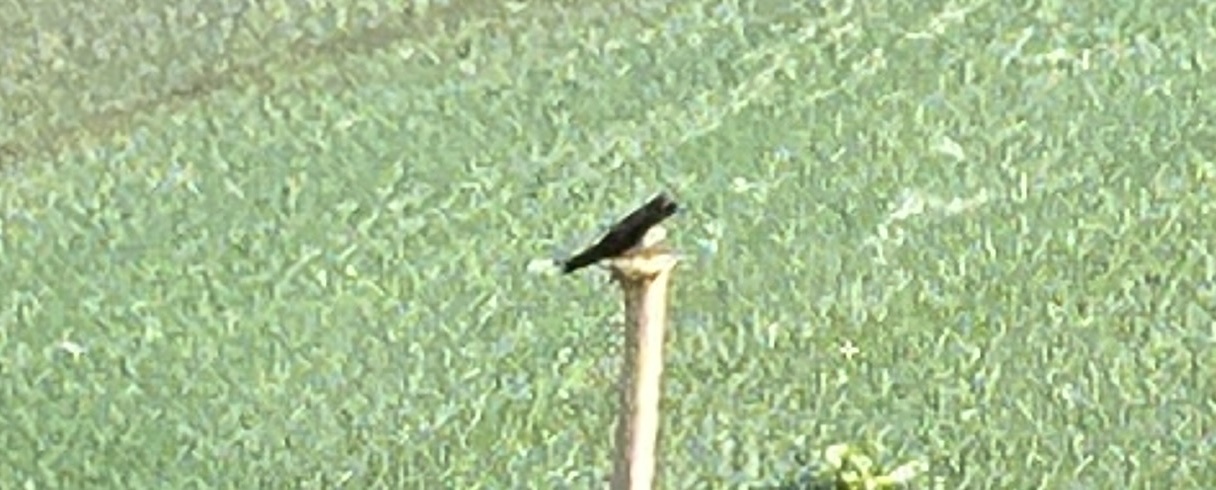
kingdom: Animalia
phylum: Chordata
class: Aves
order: Passeriformes
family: Hirundinidae
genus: Hirundo
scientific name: Hirundo rustica
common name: Barn swallow
